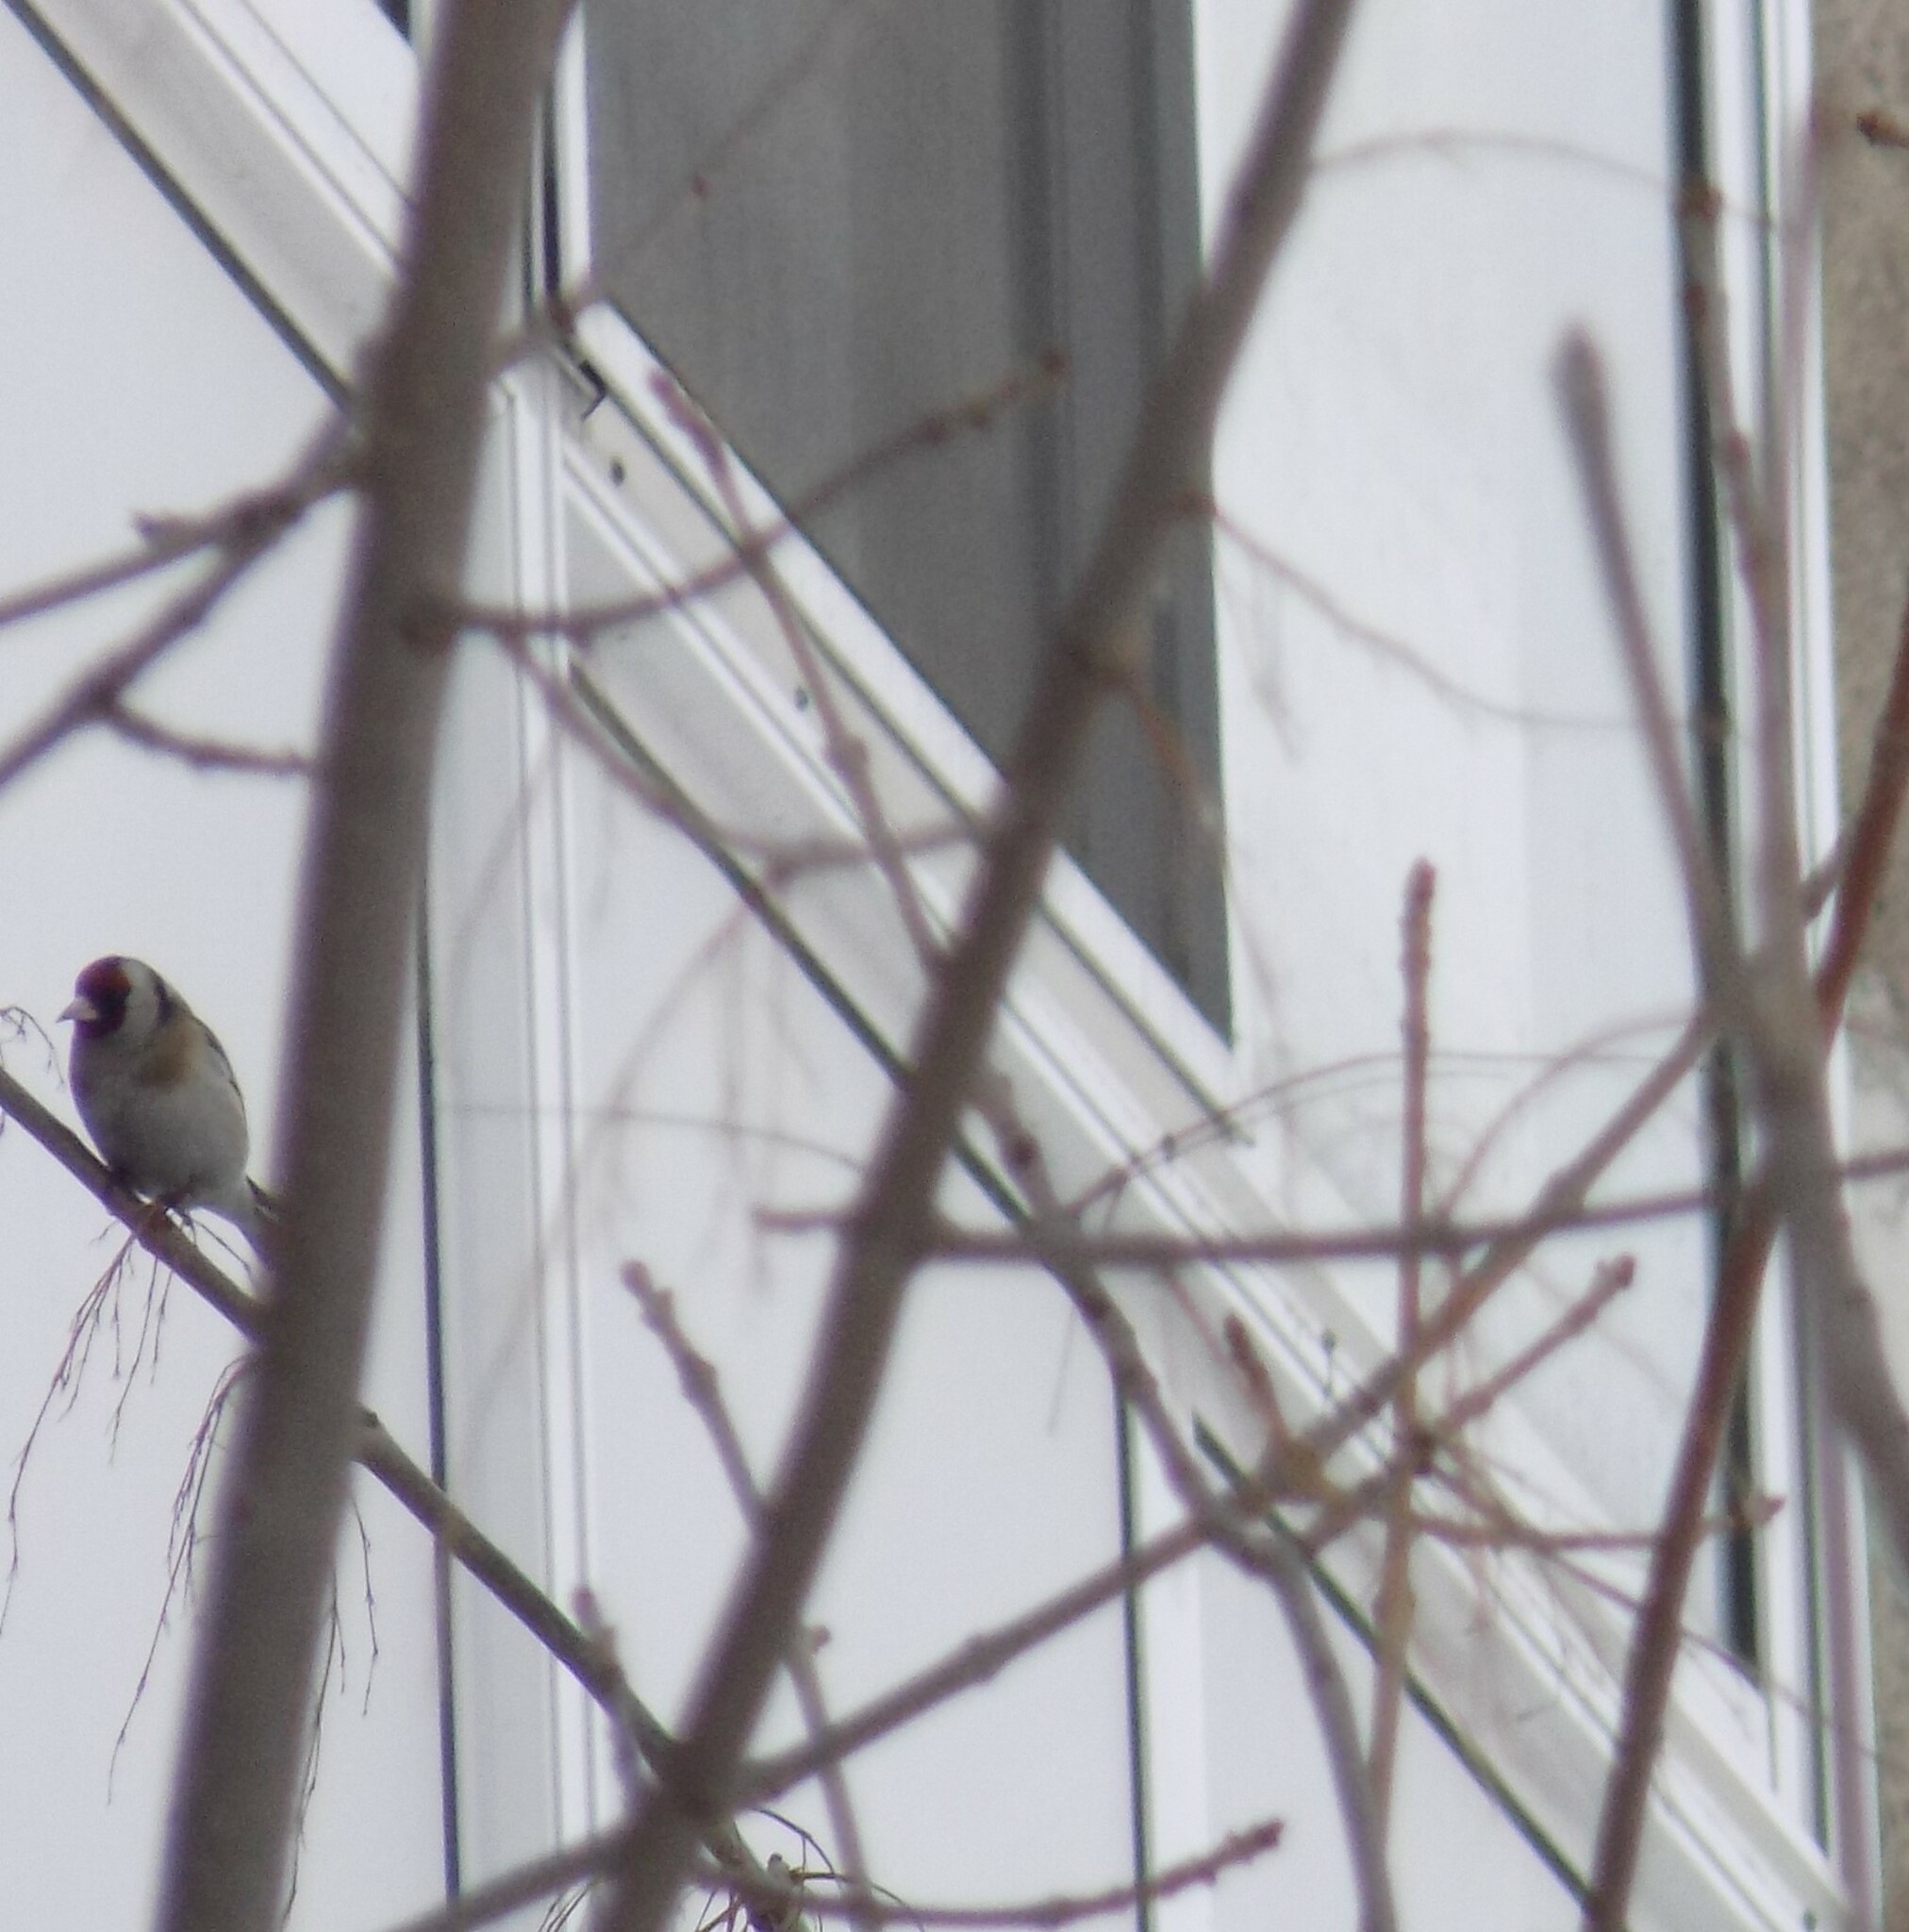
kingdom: Animalia
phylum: Chordata
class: Aves
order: Passeriformes
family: Fringillidae
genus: Carduelis
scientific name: Carduelis carduelis
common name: European goldfinch
